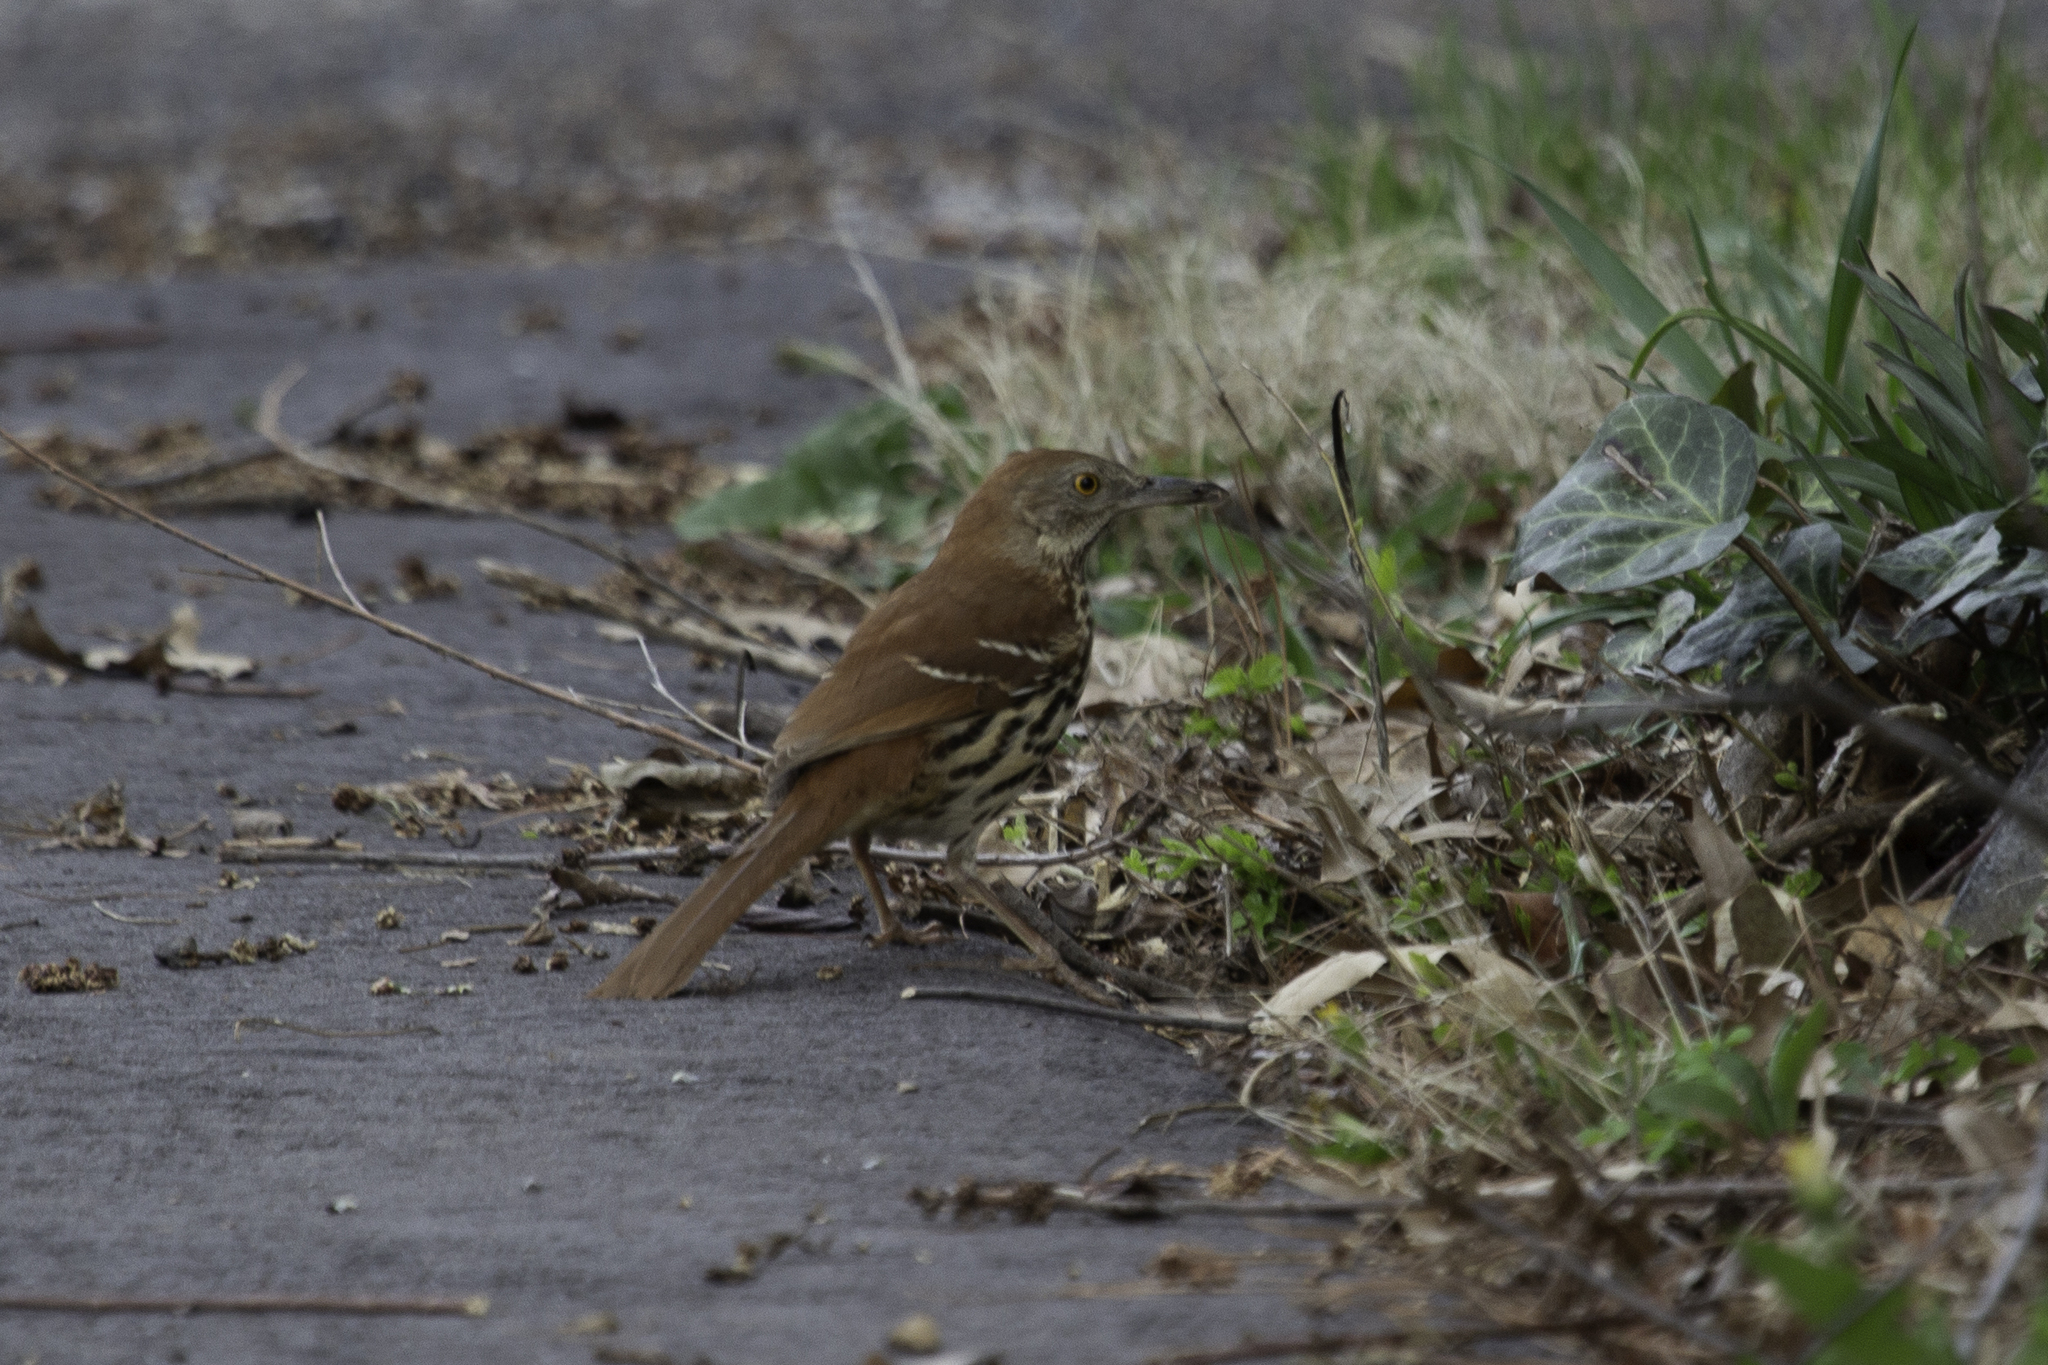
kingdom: Animalia
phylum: Chordata
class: Aves
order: Passeriformes
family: Mimidae
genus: Toxostoma
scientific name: Toxostoma rufum
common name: Brown thrasher
